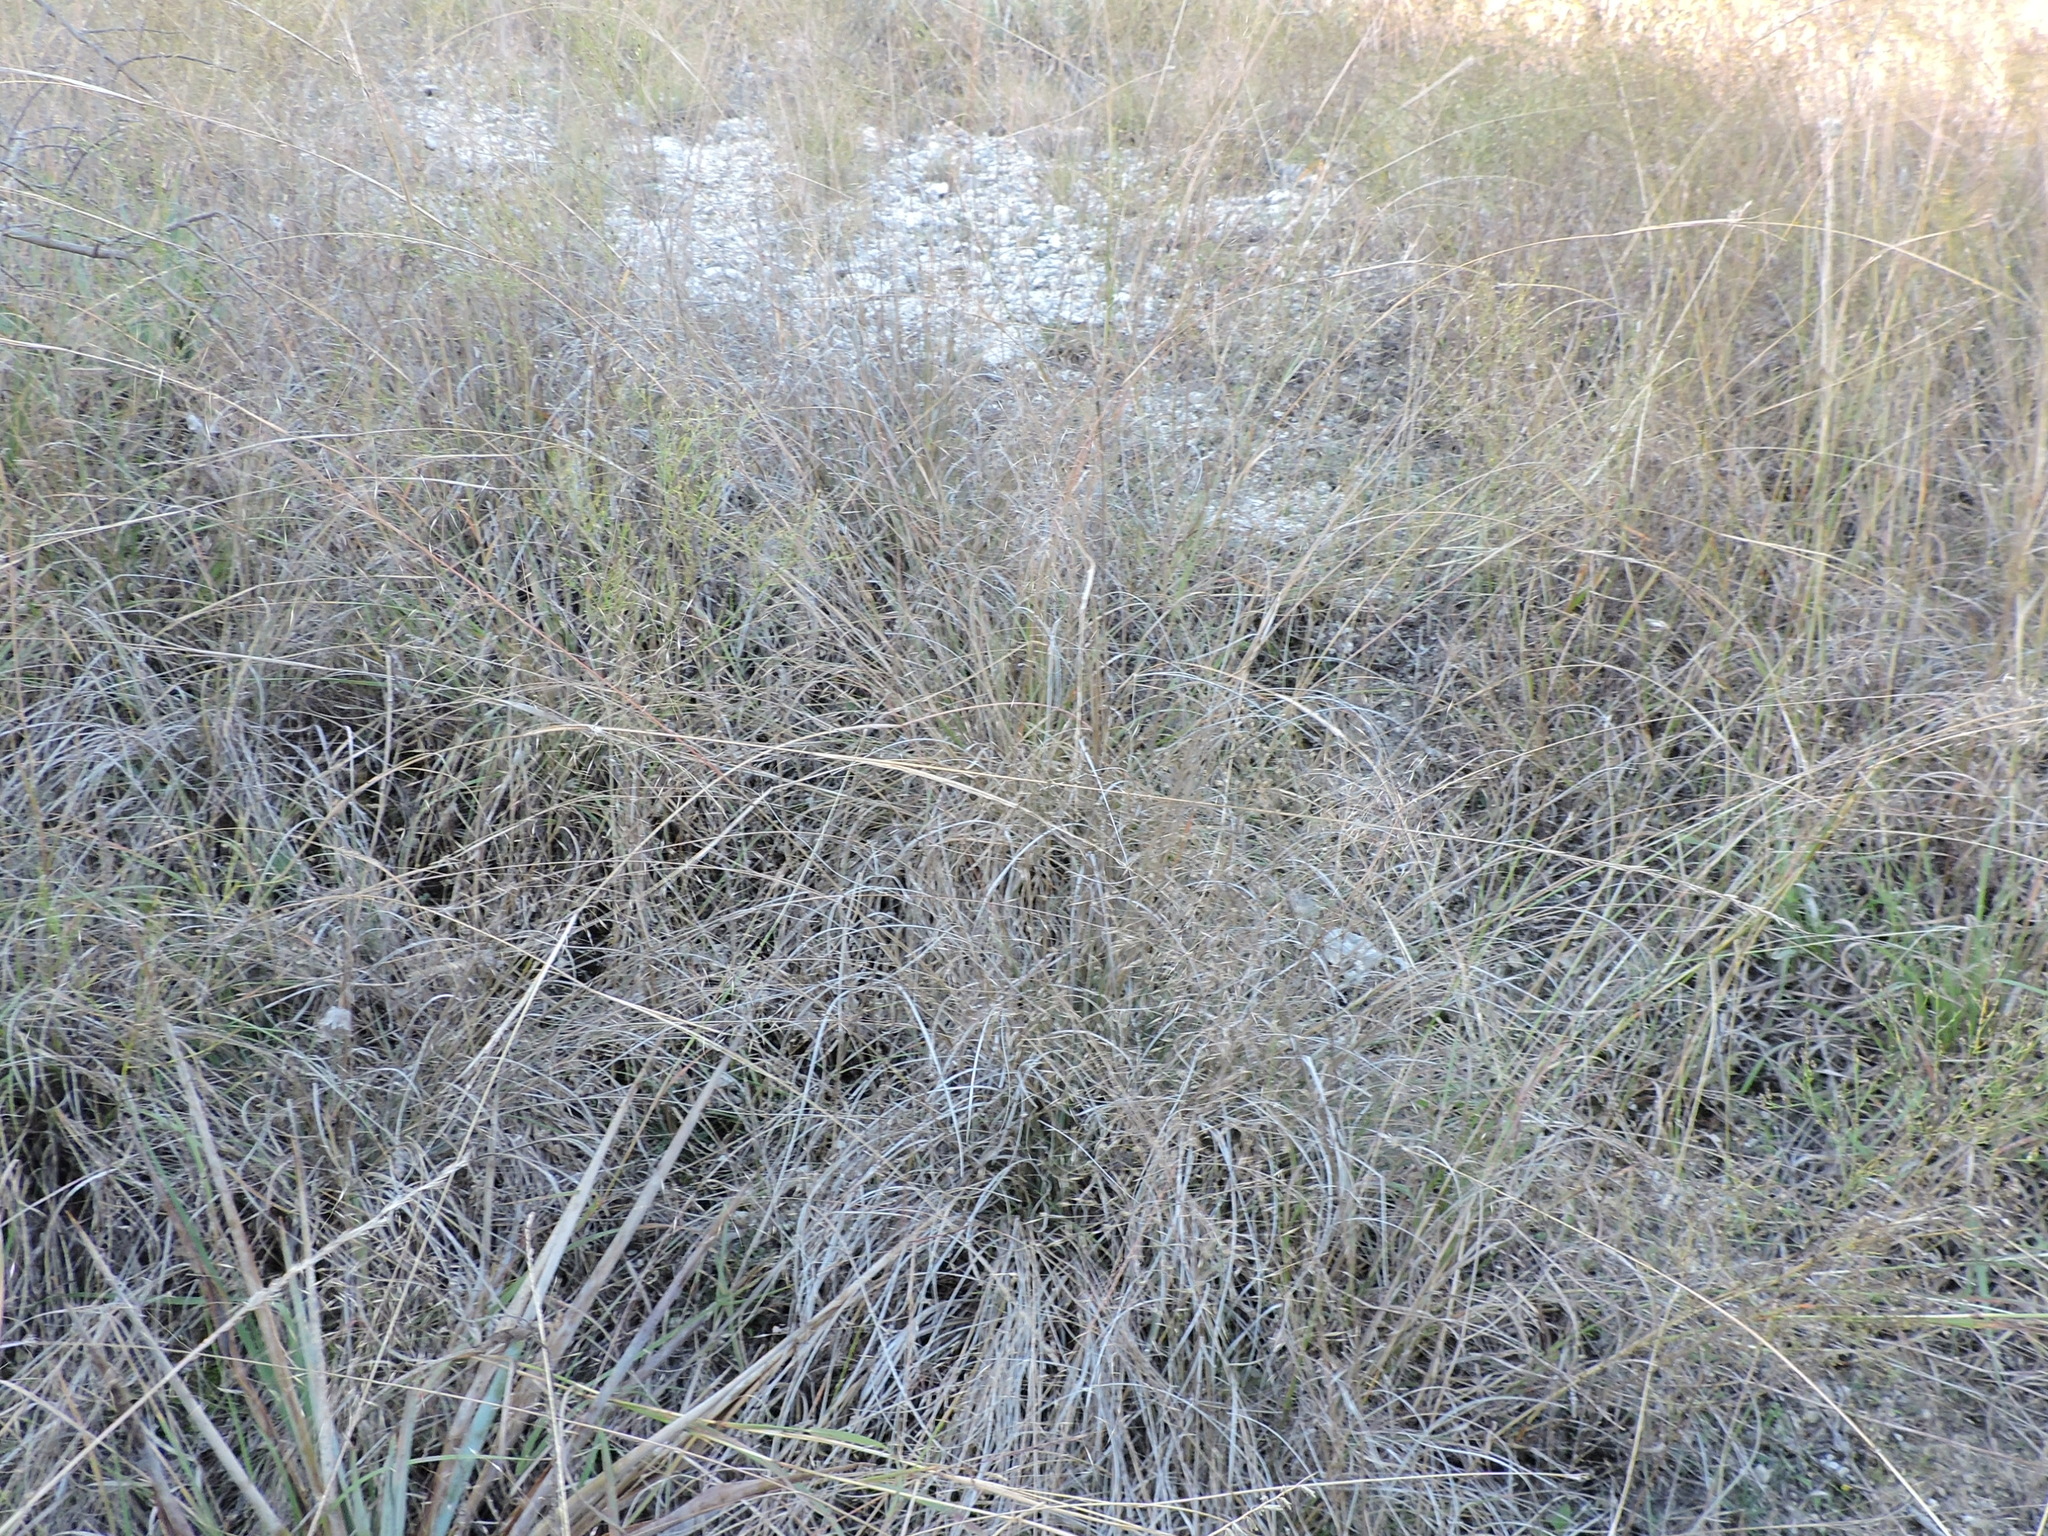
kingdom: Plantae
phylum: Tracheophyta
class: Liliopsida
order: Poales
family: Poaceae
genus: Muhlenbergia
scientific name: Muhlenbergia reverchonii
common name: Seep muhly
